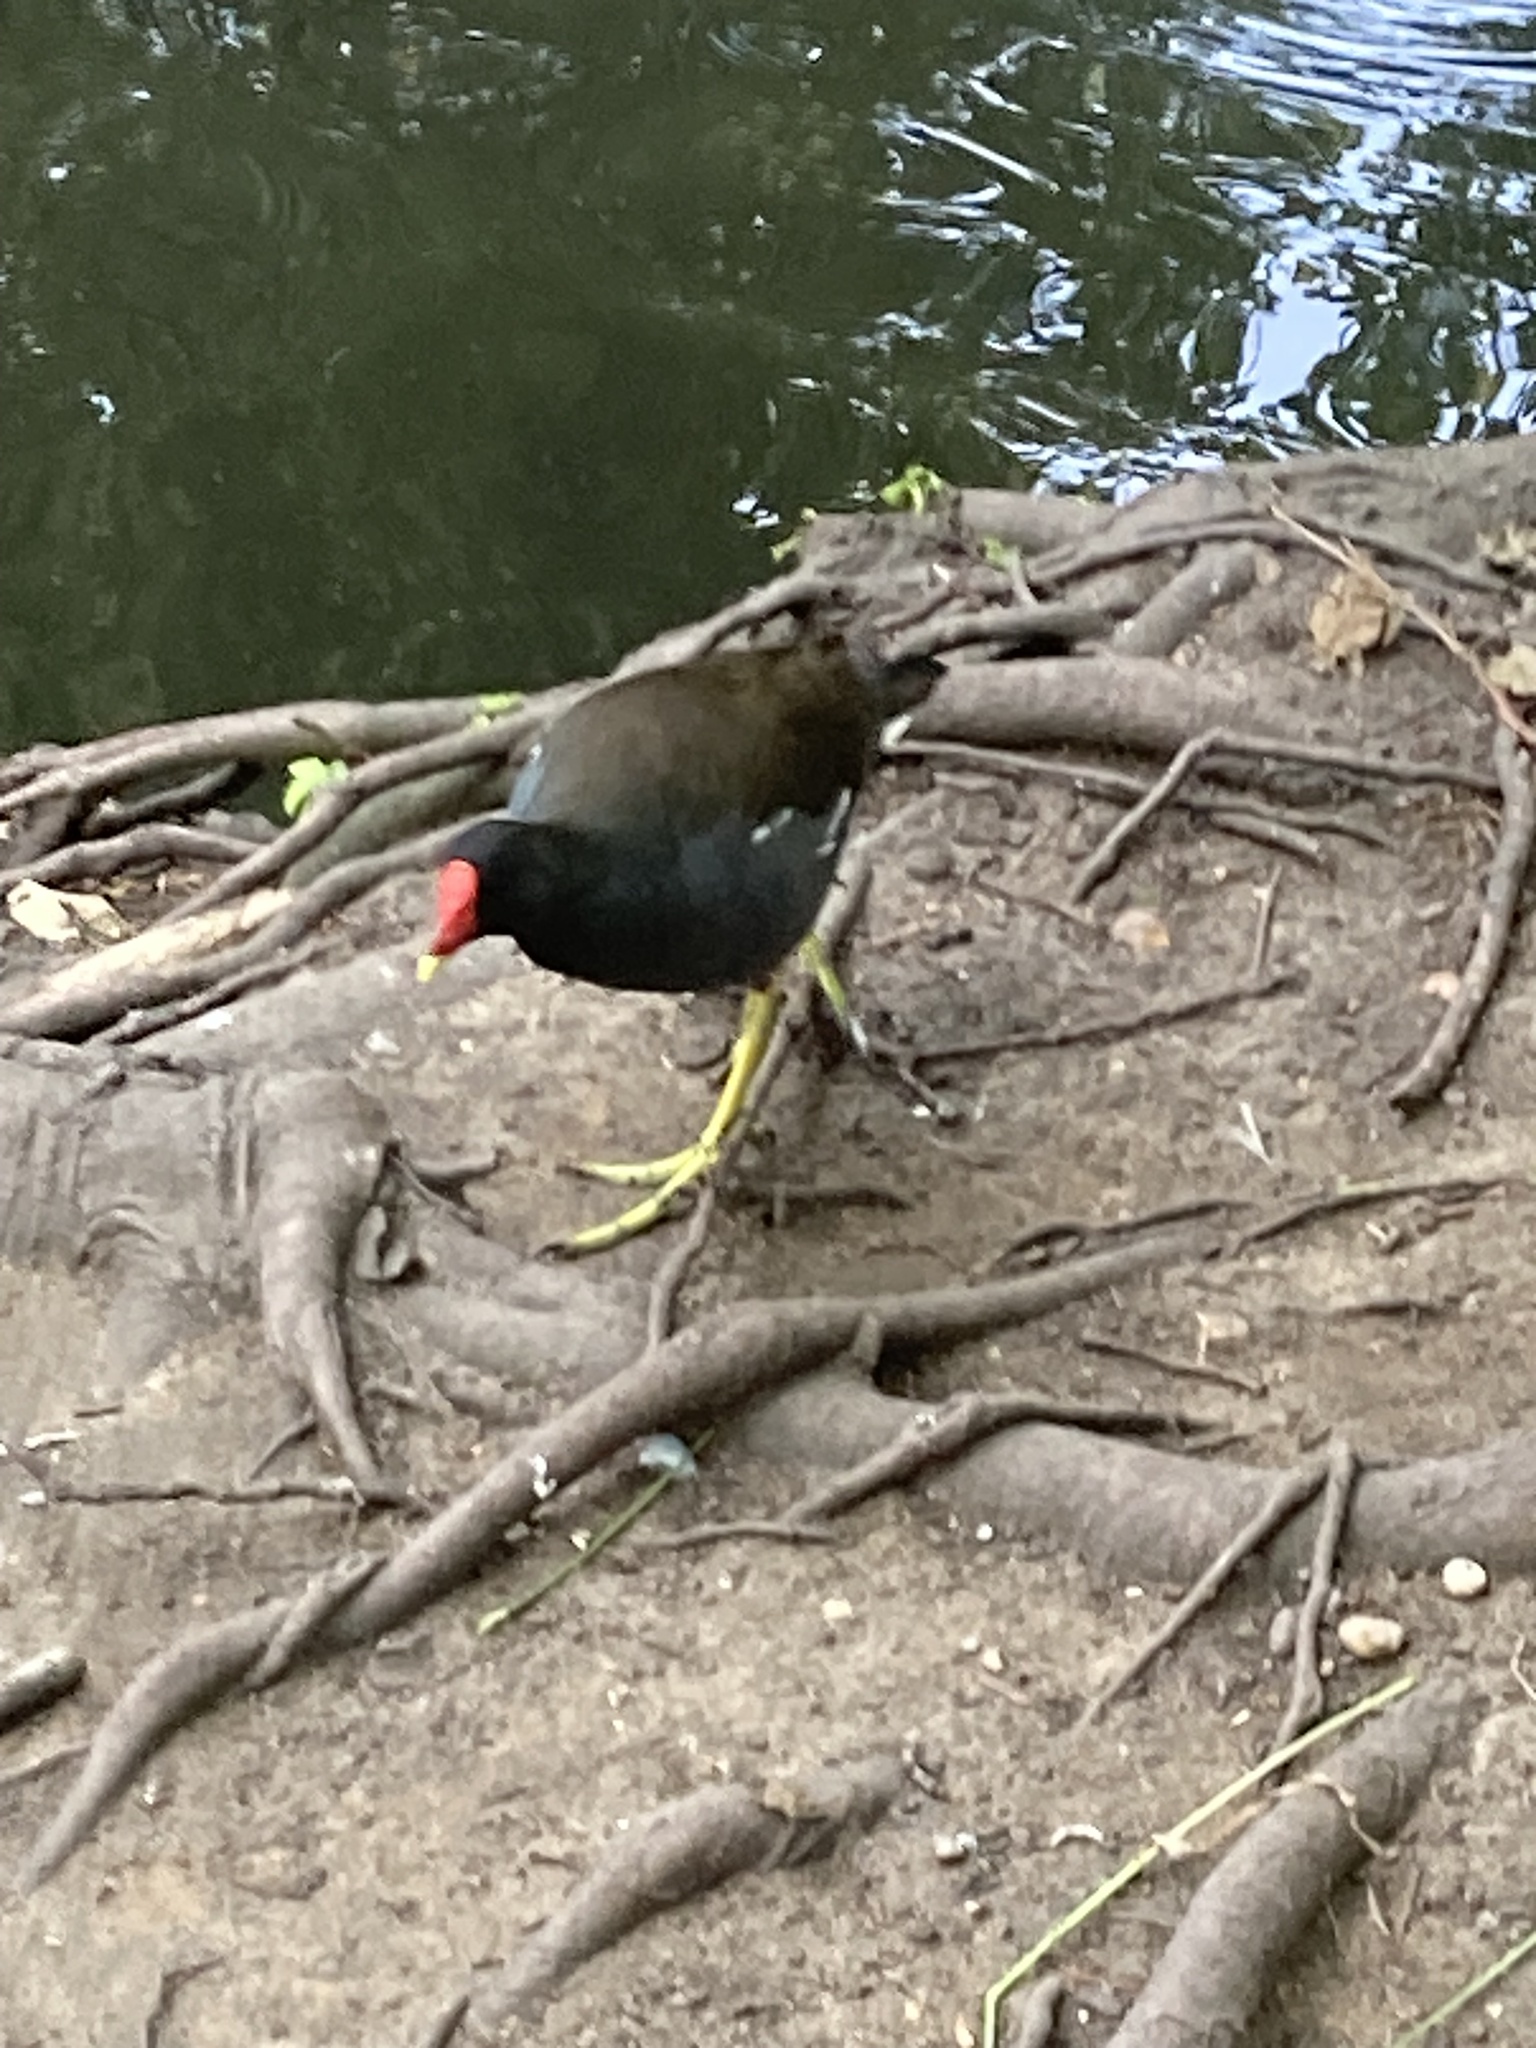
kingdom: Animalia
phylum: Chordata
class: Aves
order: Gruiformes
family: Rallidae
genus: Gallinula
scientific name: Gallinula chloropus
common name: Common moorhen
